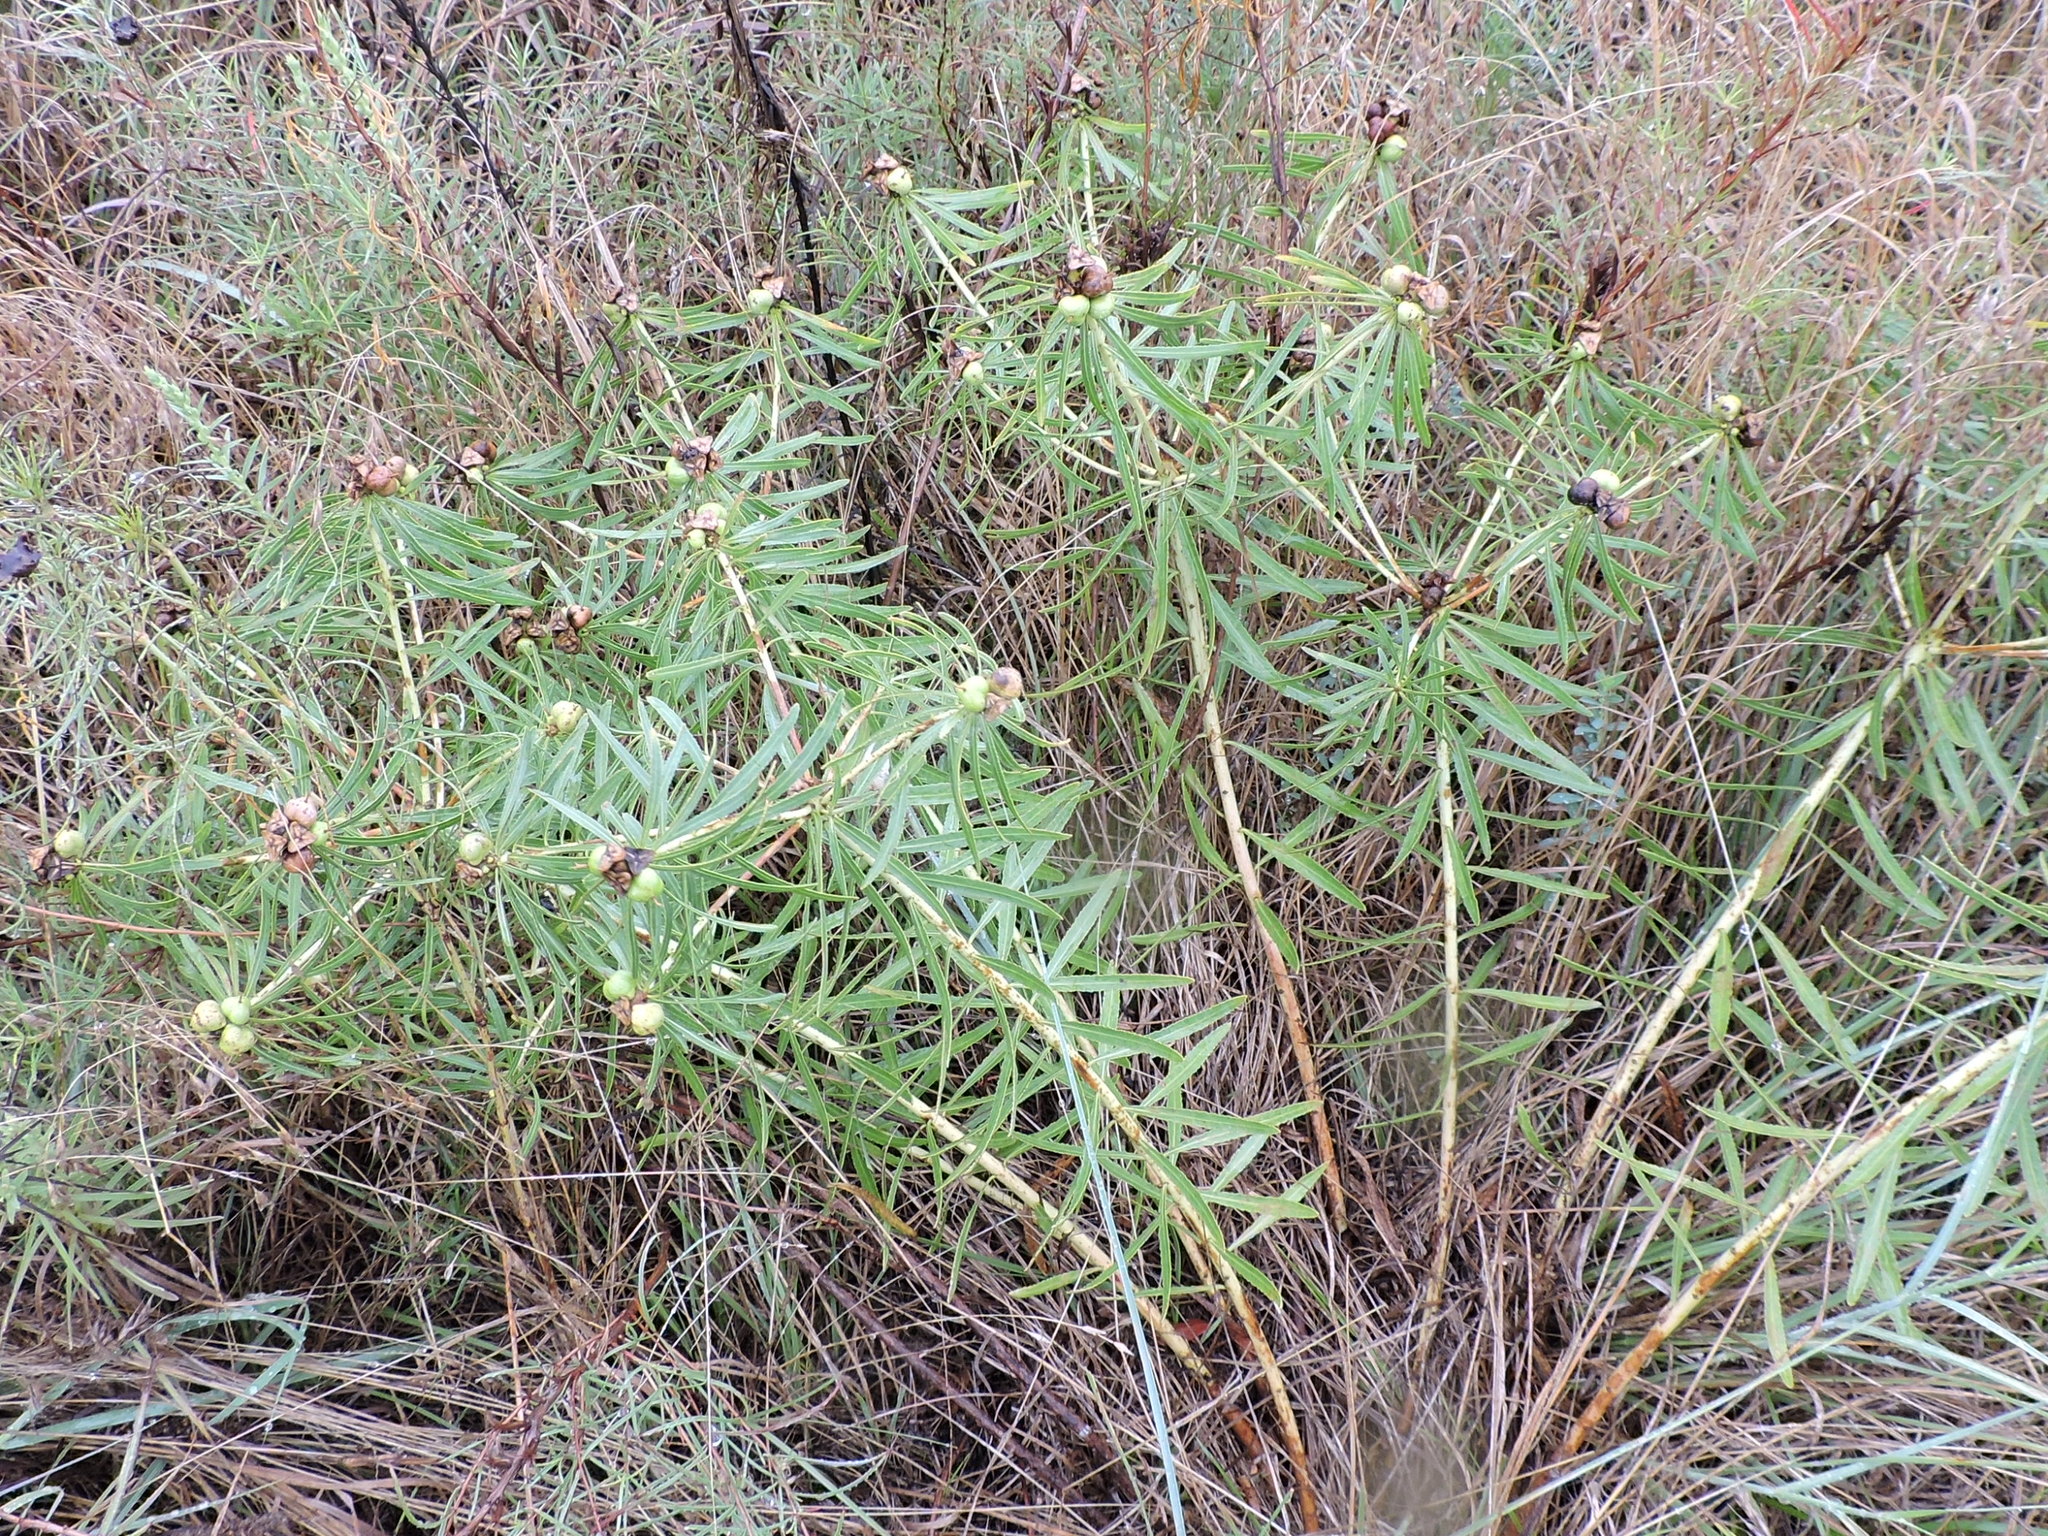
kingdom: Plantae
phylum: Tracheophyta
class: Magnoliopsida
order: Malpighiales
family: Euphorbiaceae
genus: Stillingia
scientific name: Stillingia texana
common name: Texas stillingia
